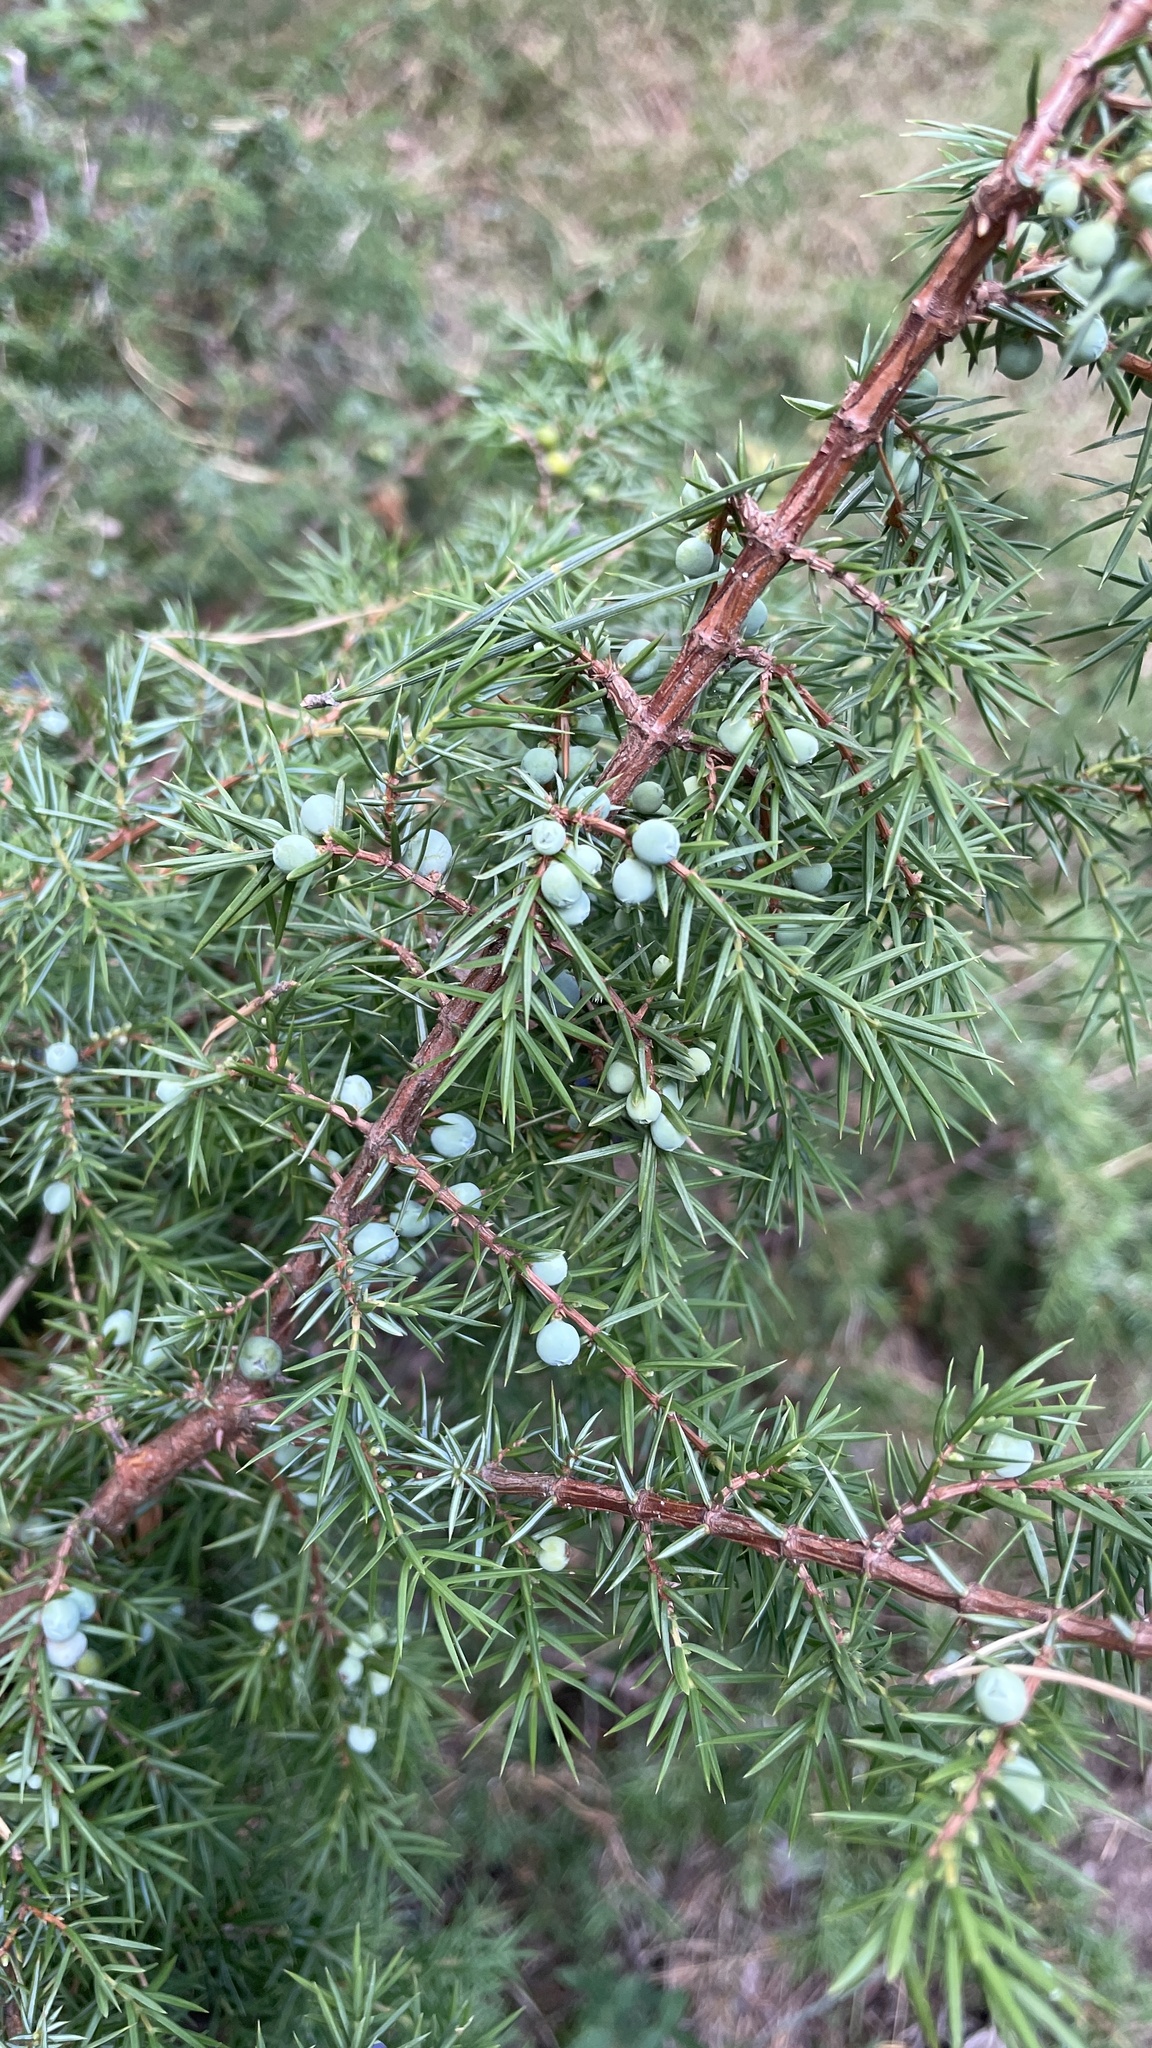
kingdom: Plantae
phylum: Tracheophyta
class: Pinopsida
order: Pinales
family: Cupressaceae
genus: Juniperus
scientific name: Juniperus communis
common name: Common juniper
